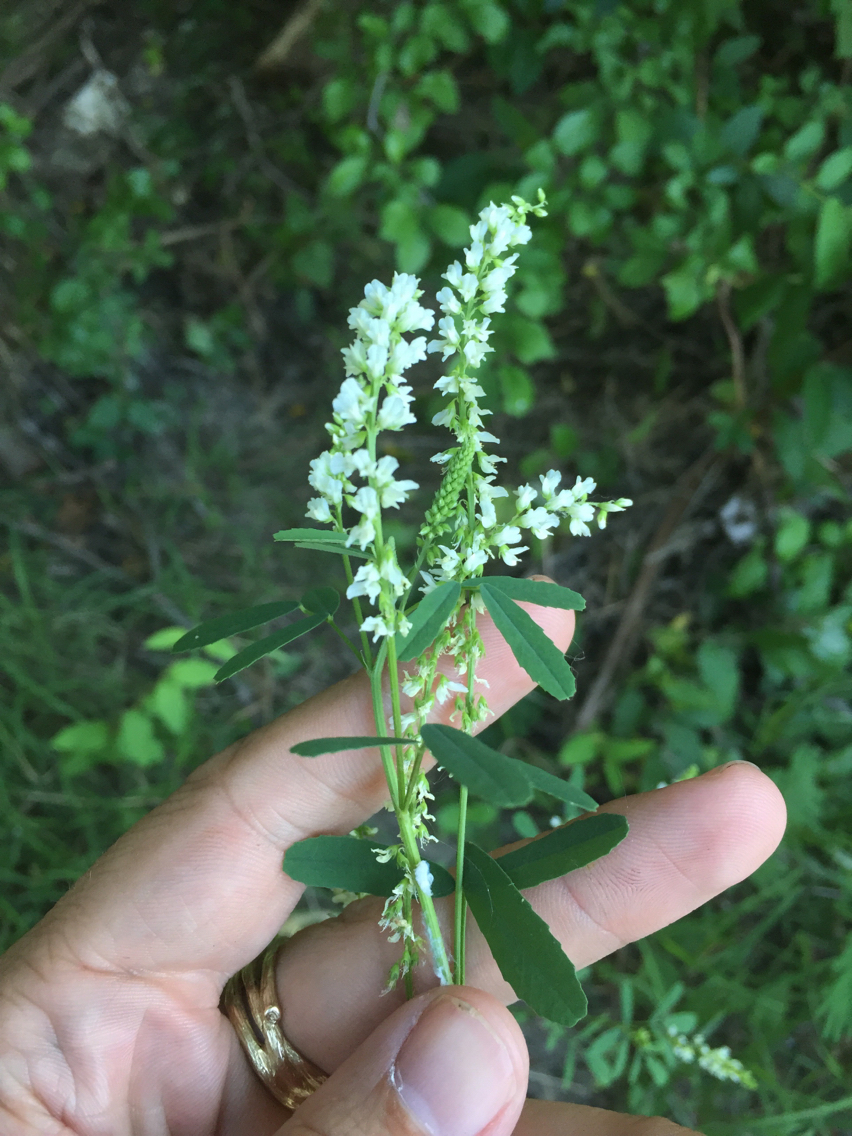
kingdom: Plantae
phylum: Tracheophyta
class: Magnoliopsida
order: Fabales
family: Fabaceae
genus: Melilotus
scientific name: Melilotus albus
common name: White melilot
